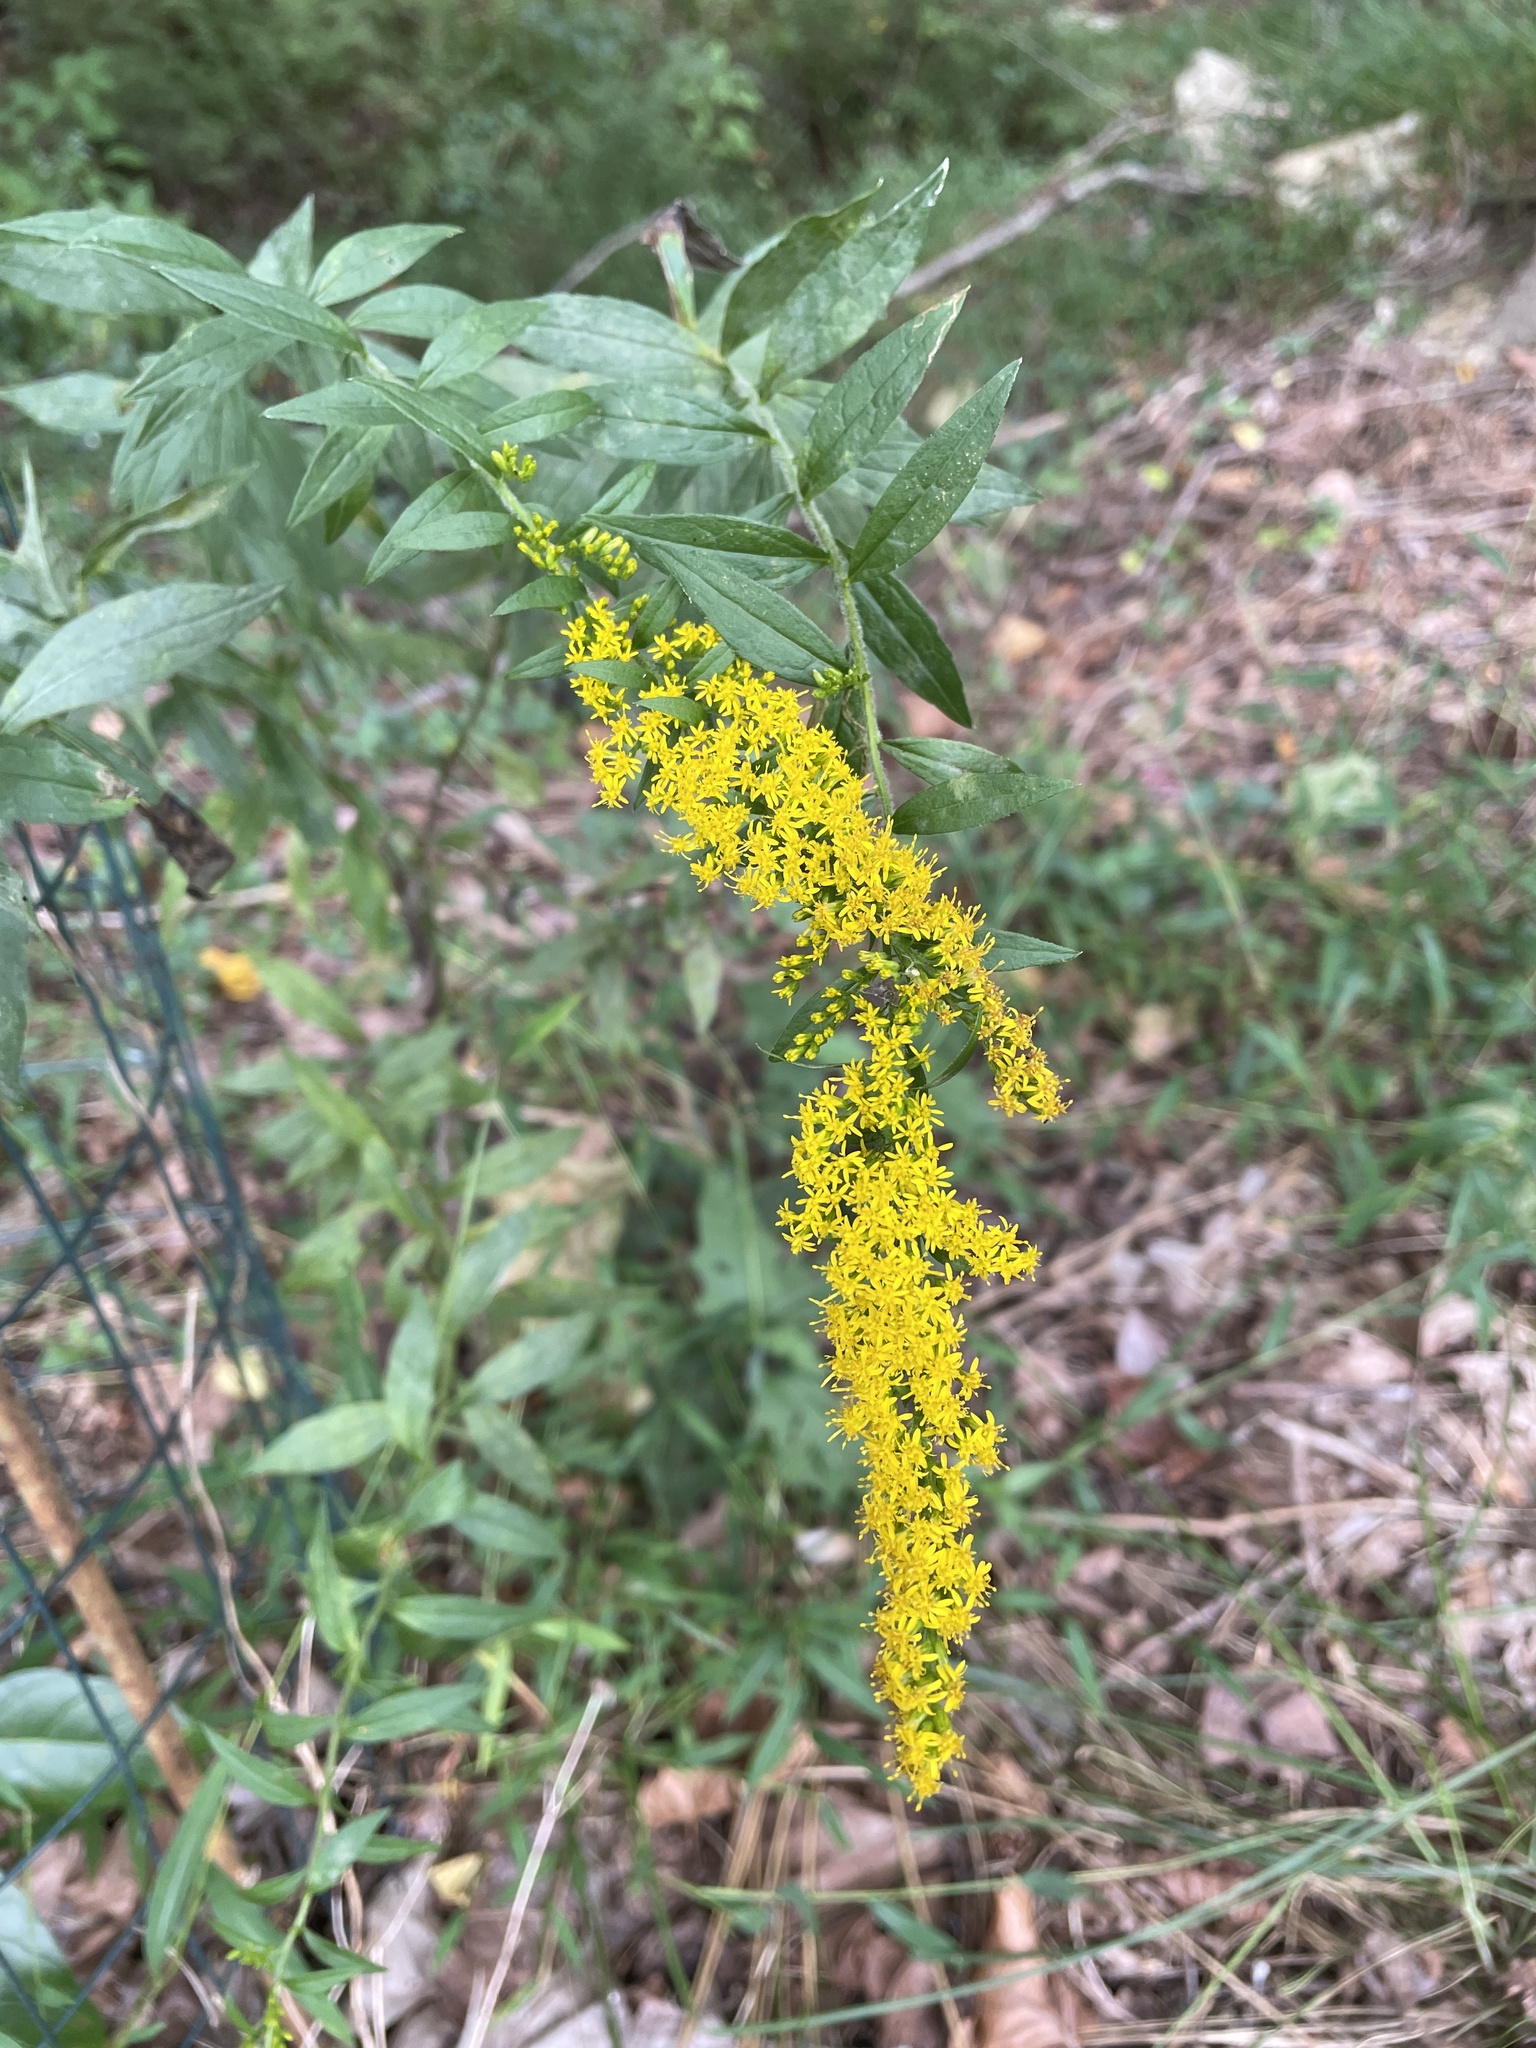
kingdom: Plantae
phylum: Tracheophyta
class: Magnoliopsida
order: Asterales
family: Asteraceae
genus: Solidago
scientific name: Solidago rugosa
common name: Rough-stemmed goldenrod
